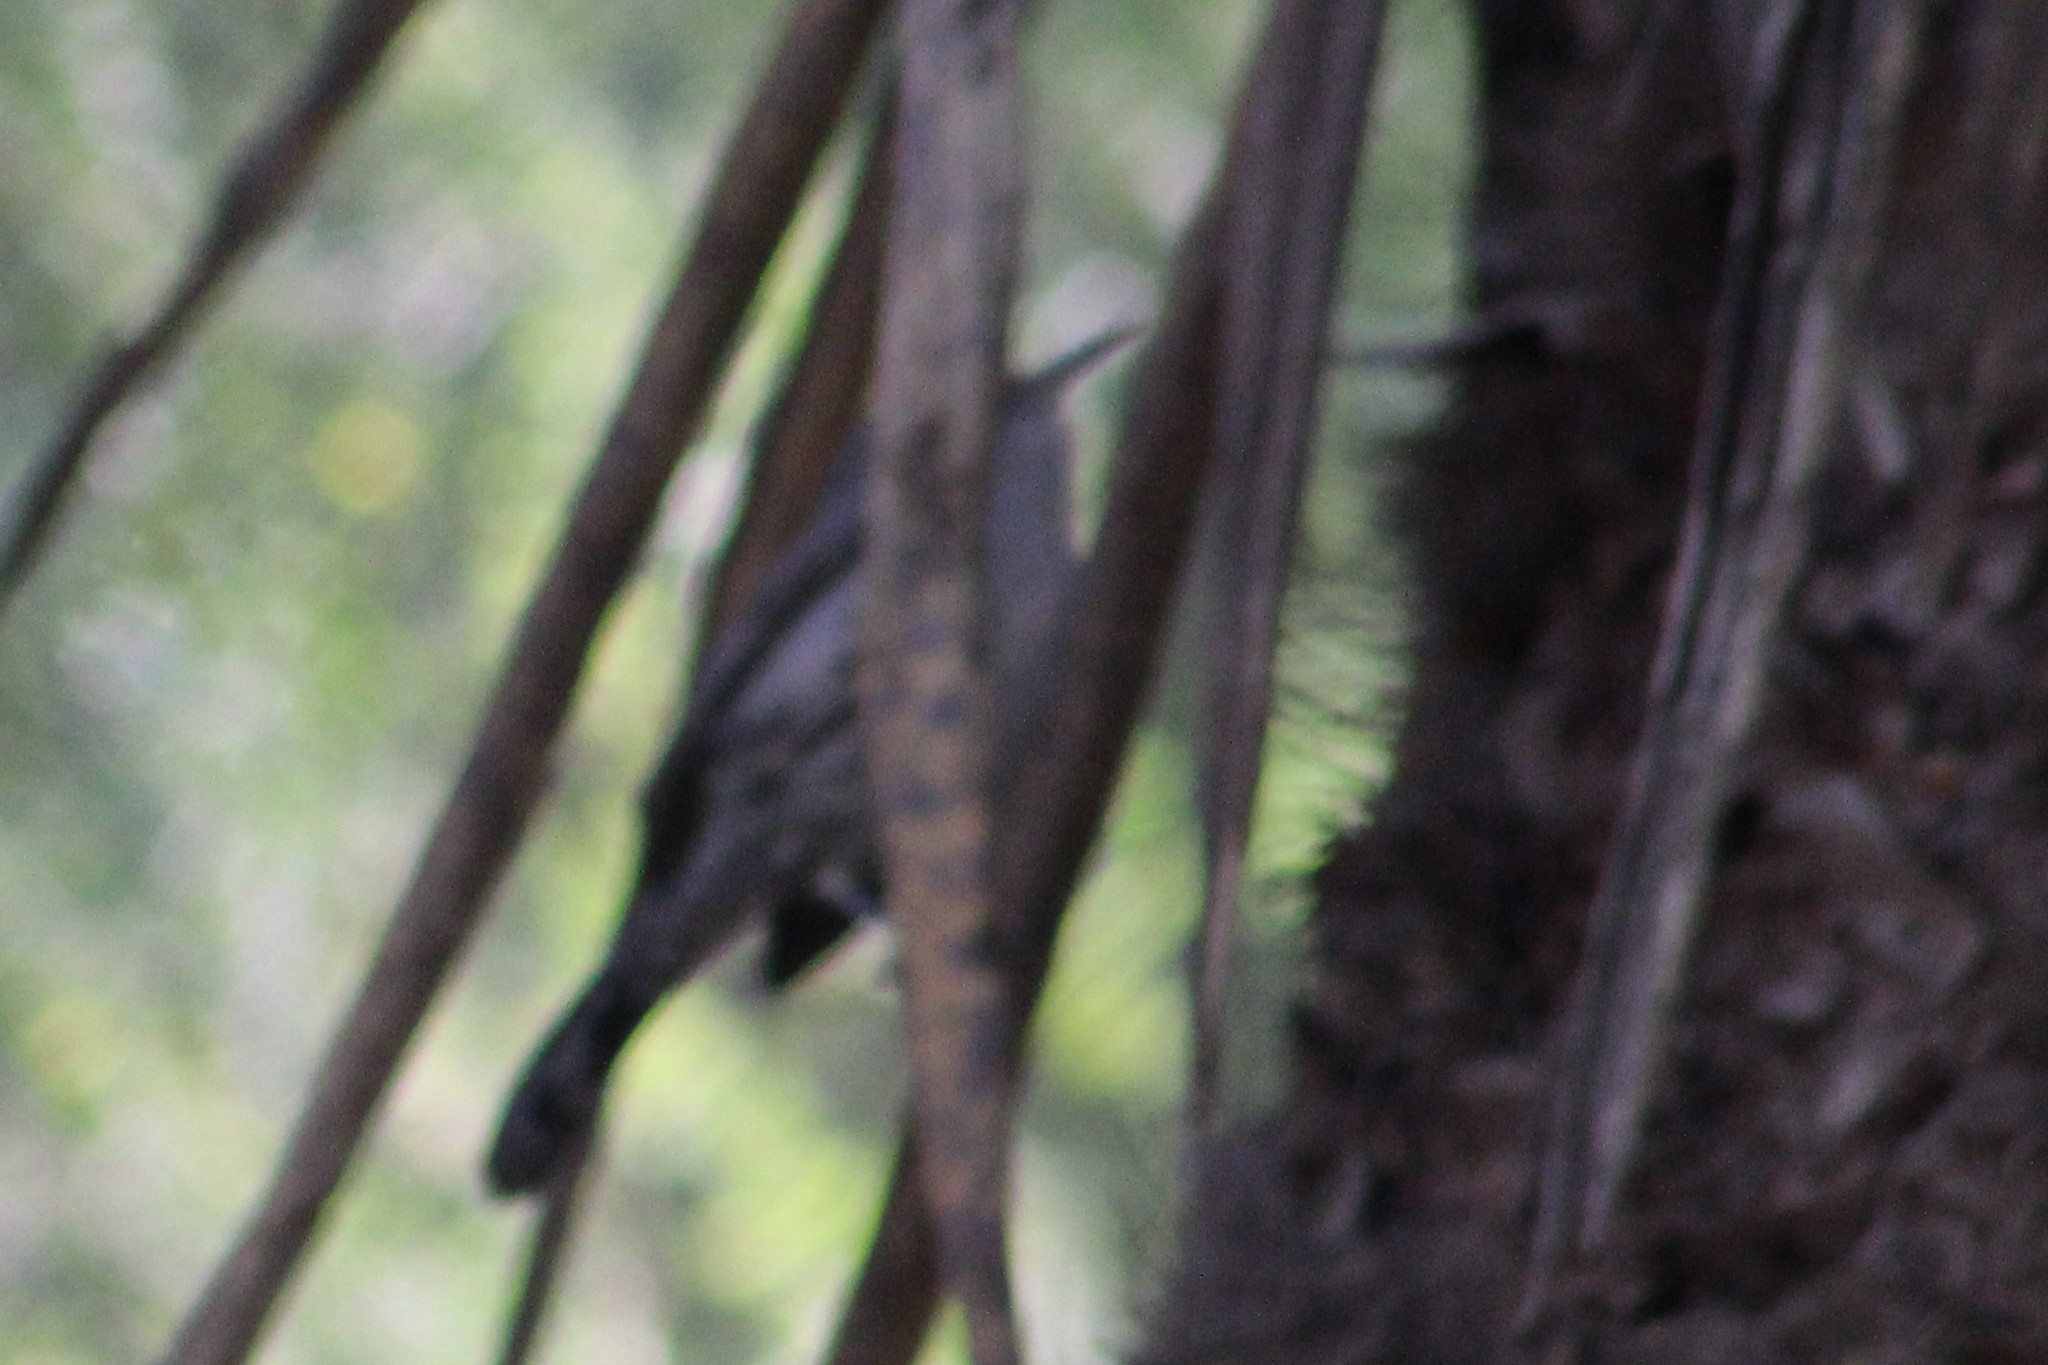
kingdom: Animalia
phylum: Chordata
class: Aves
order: Passeriformes
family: Troglodytidae
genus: Thryomanes
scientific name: Thryomanes bewickii
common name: Bewick's wren
